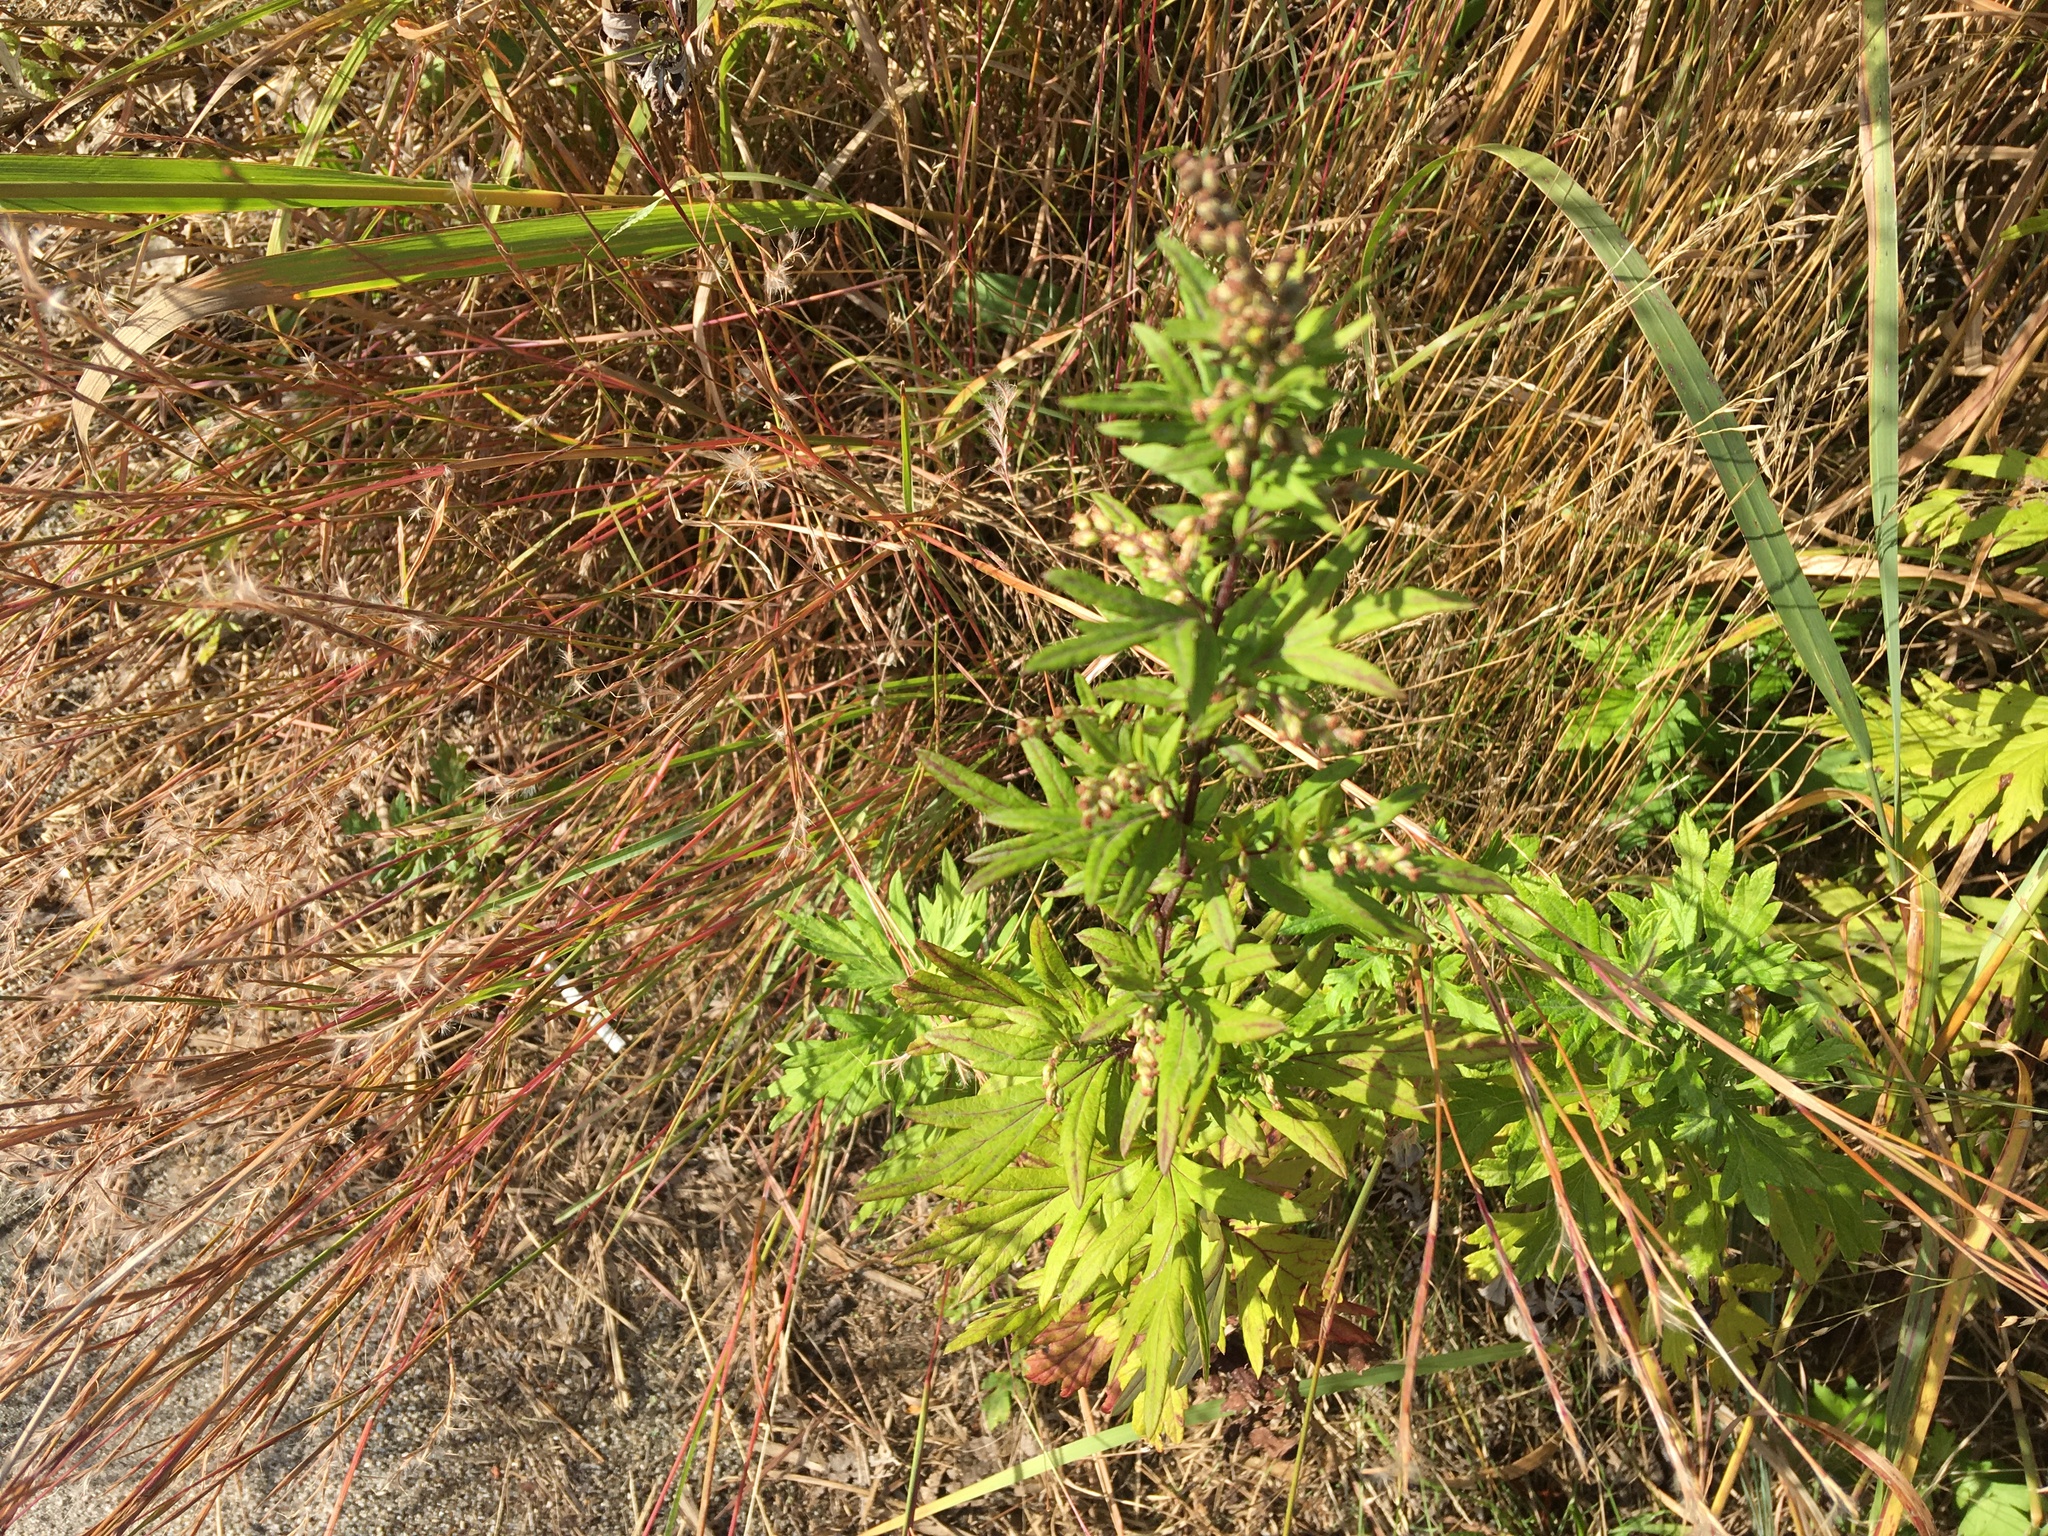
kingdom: Plantae
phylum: Tracheophyta
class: Magnoliopsida
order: Asterales
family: Asteraceae
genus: Artemisia
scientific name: Artemisia vulgaris
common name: Mugwort
